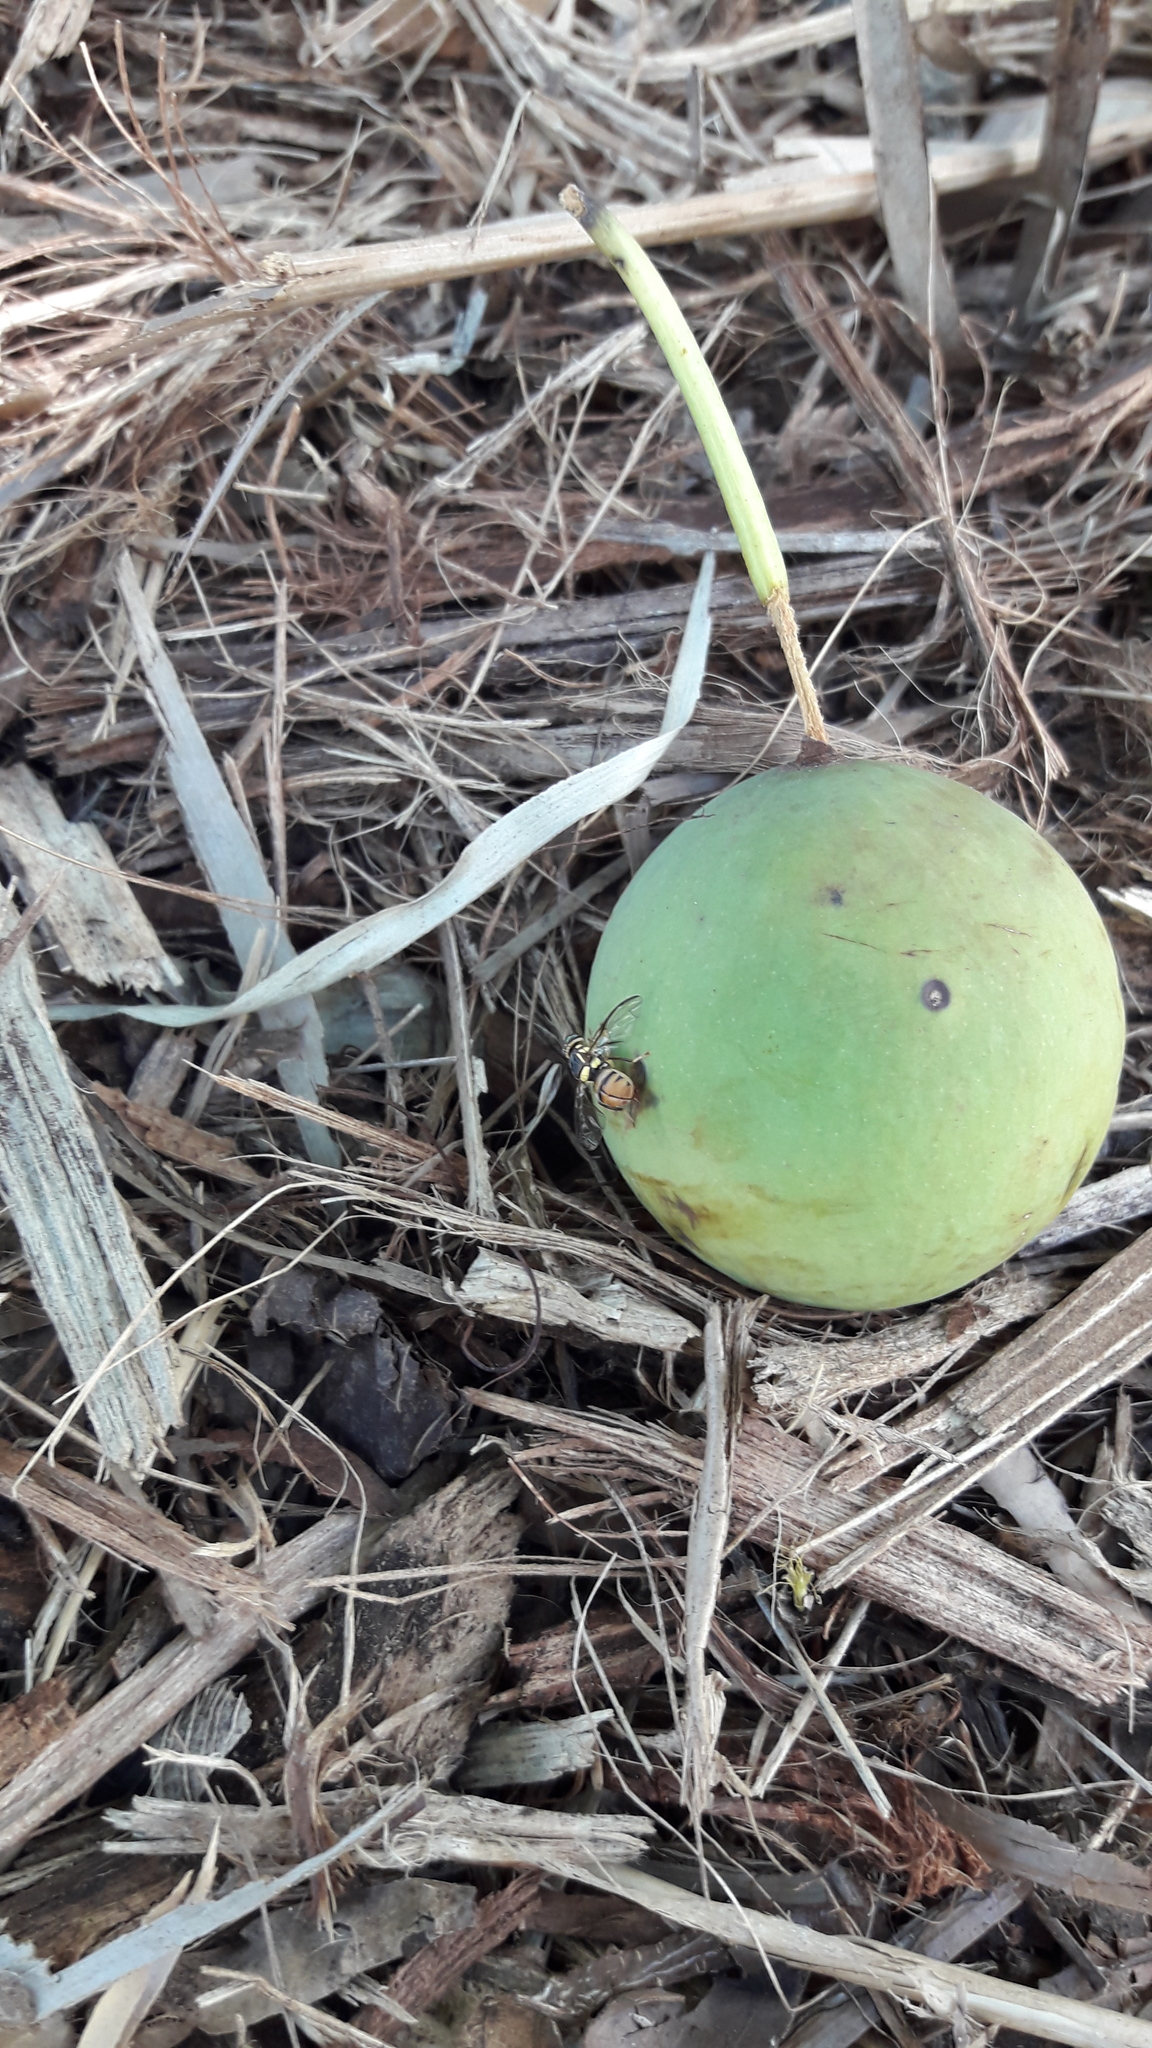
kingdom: Animalia
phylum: Arthropoda
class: Insecta
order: Diptera
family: Tephritidae
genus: Bactrocera
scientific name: Bactrocera dorsalis
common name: Oriental fruit fly
